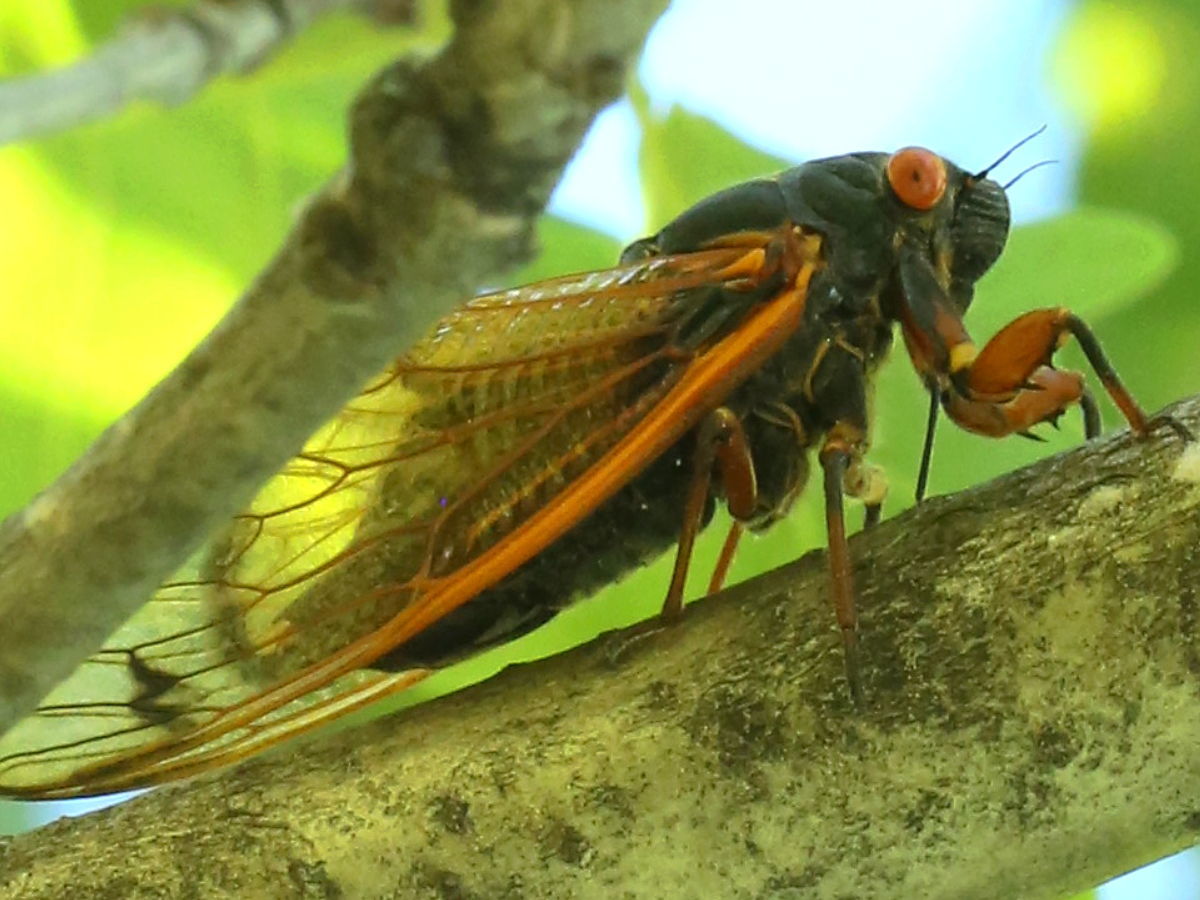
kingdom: Animalia
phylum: Arthropoda
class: Insecta
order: Hemiptera
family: Cicadidae
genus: Magicicada
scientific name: Magicicada cassini
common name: Cassin's 17-year cicada
